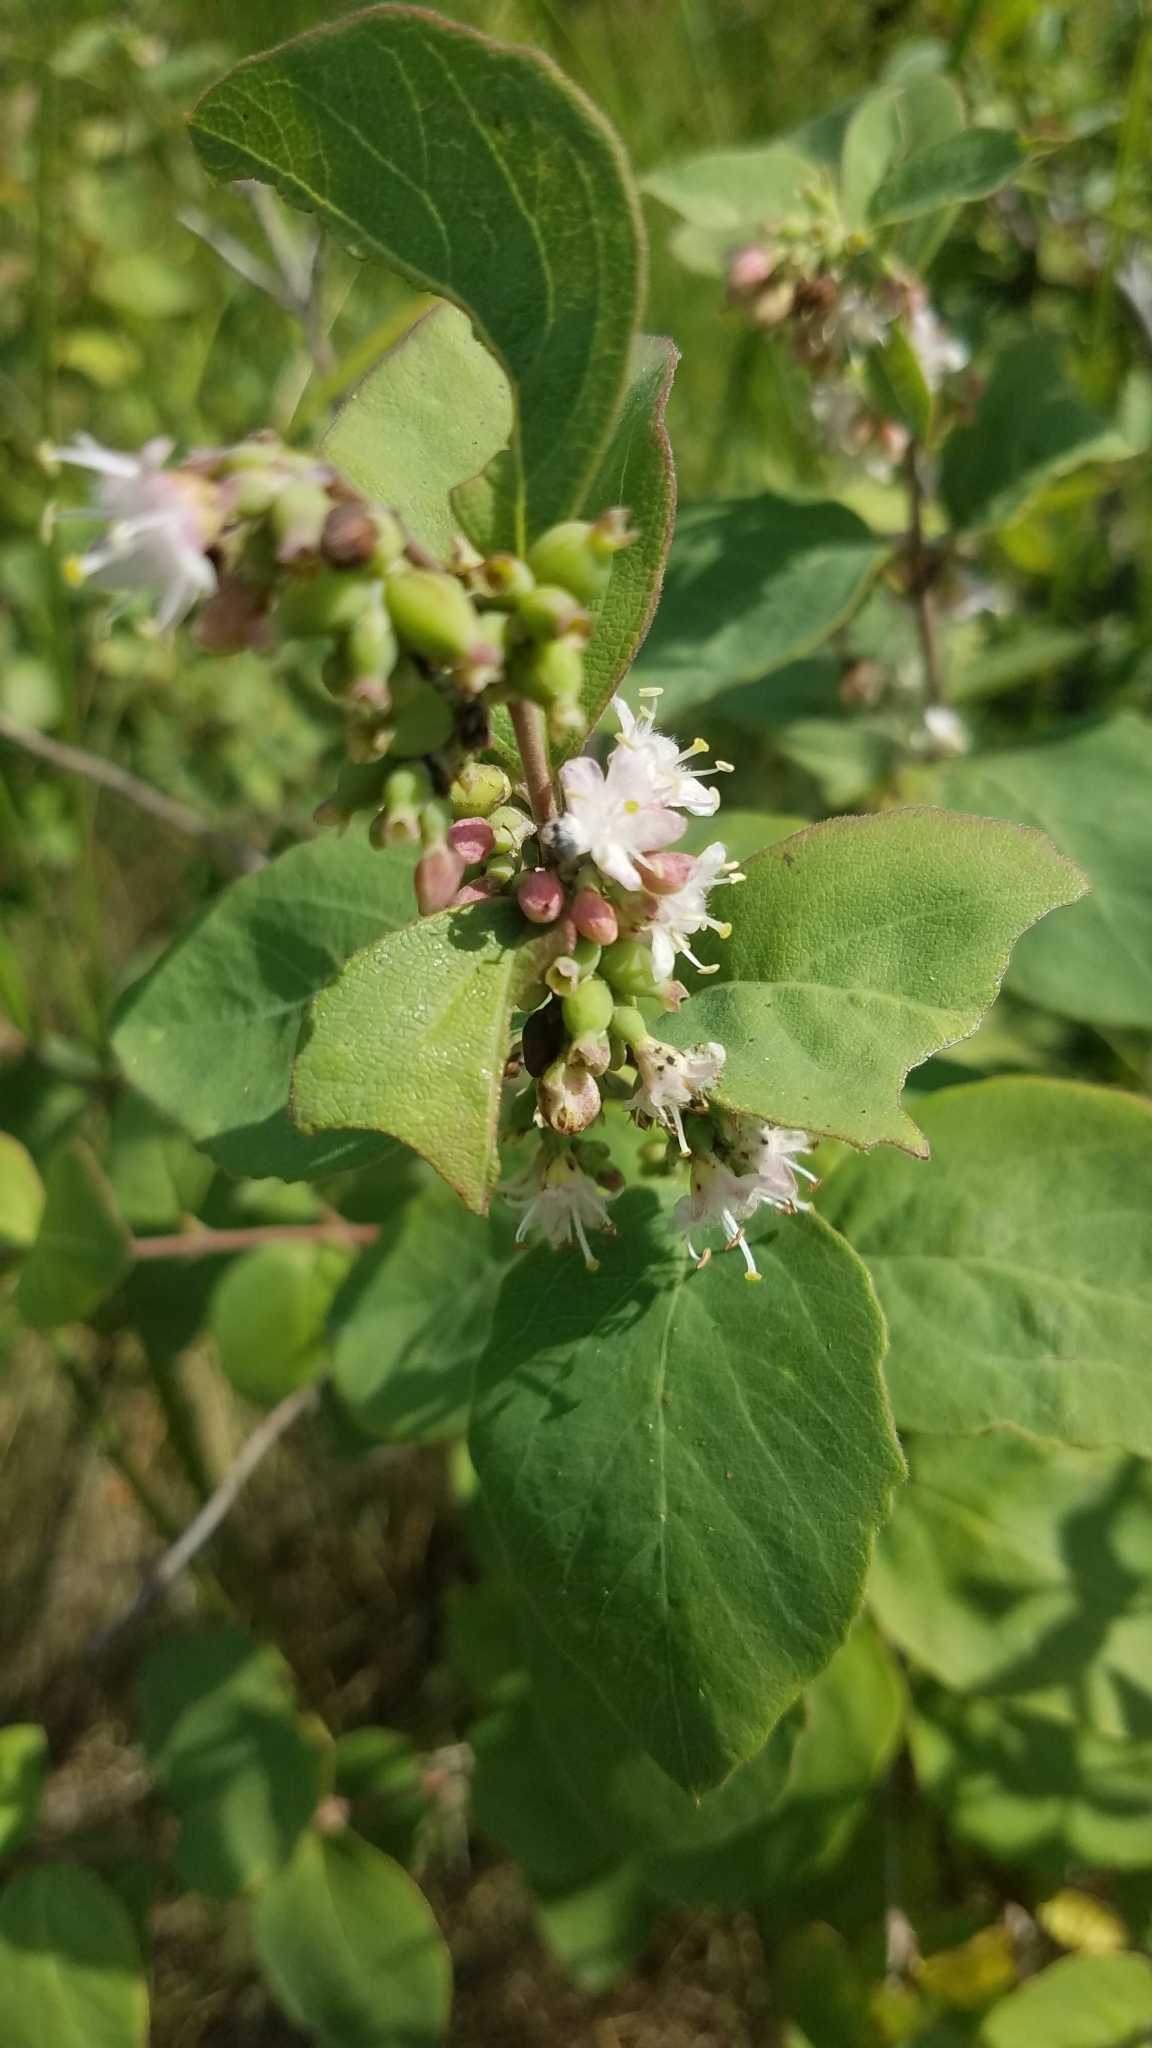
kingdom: Plantae
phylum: Tracheophyta
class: Magnoliopsida
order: Dipsacales
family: Caprifoliaceae
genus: Symphoricarpos
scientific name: Symphoricarpos occidentalis
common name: Wolfberry
